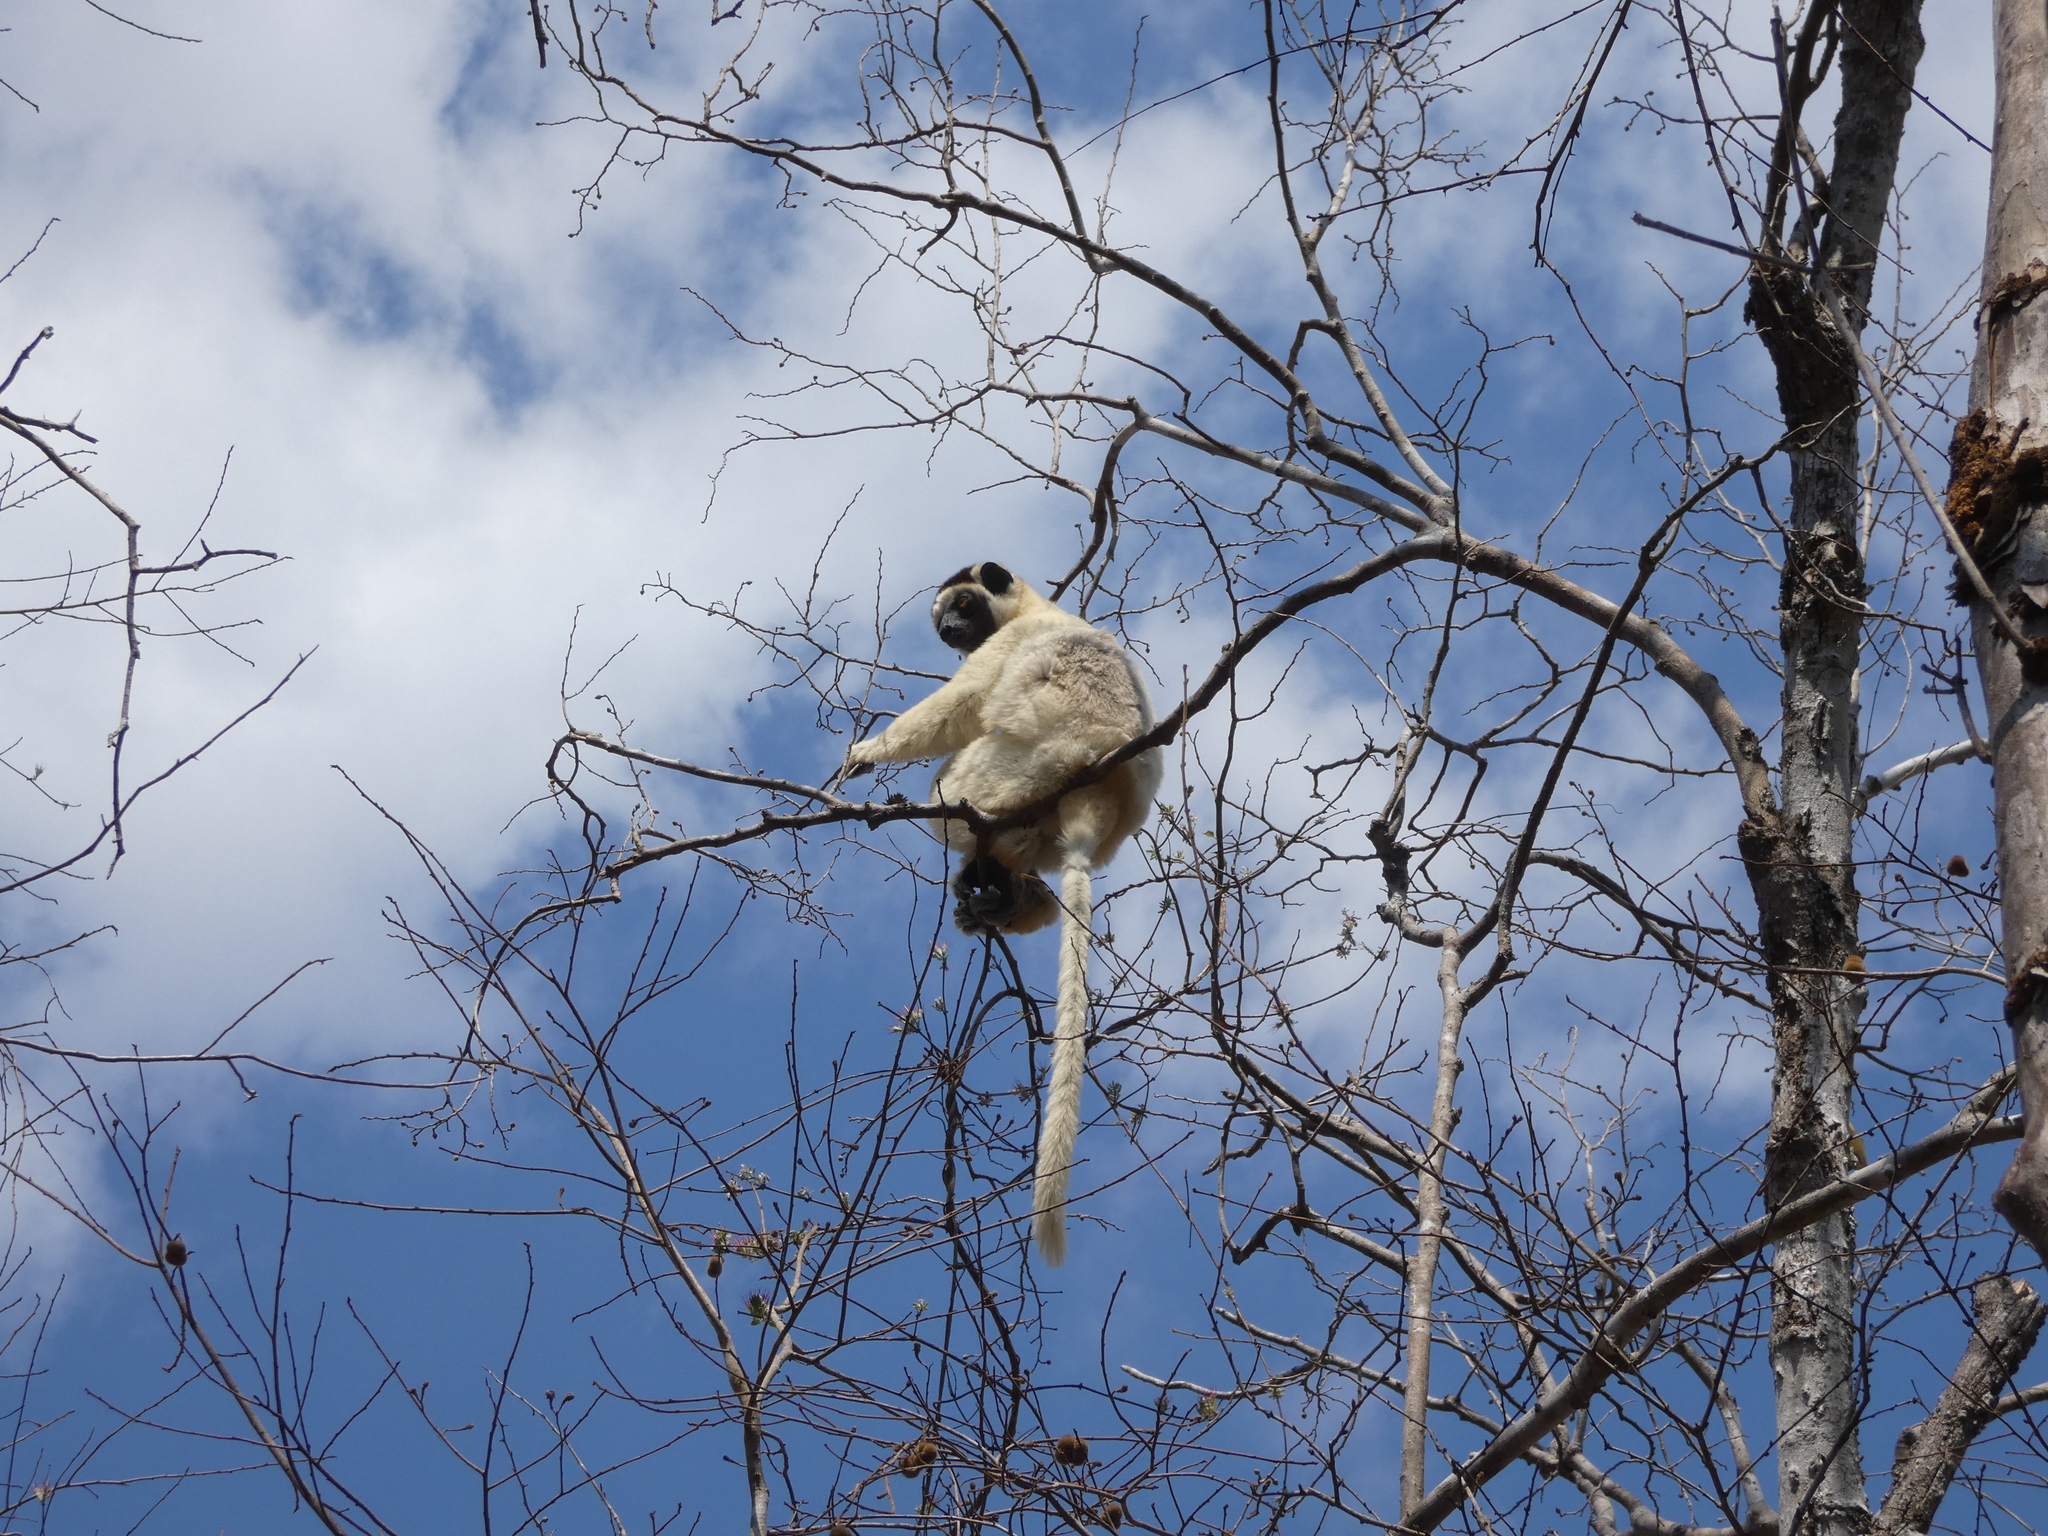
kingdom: Animalia
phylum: Chordata
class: Mammalia
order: Primates
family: Indriidae
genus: Propithecus
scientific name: Propithecus verreauxi
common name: Verreaux's sifaka
